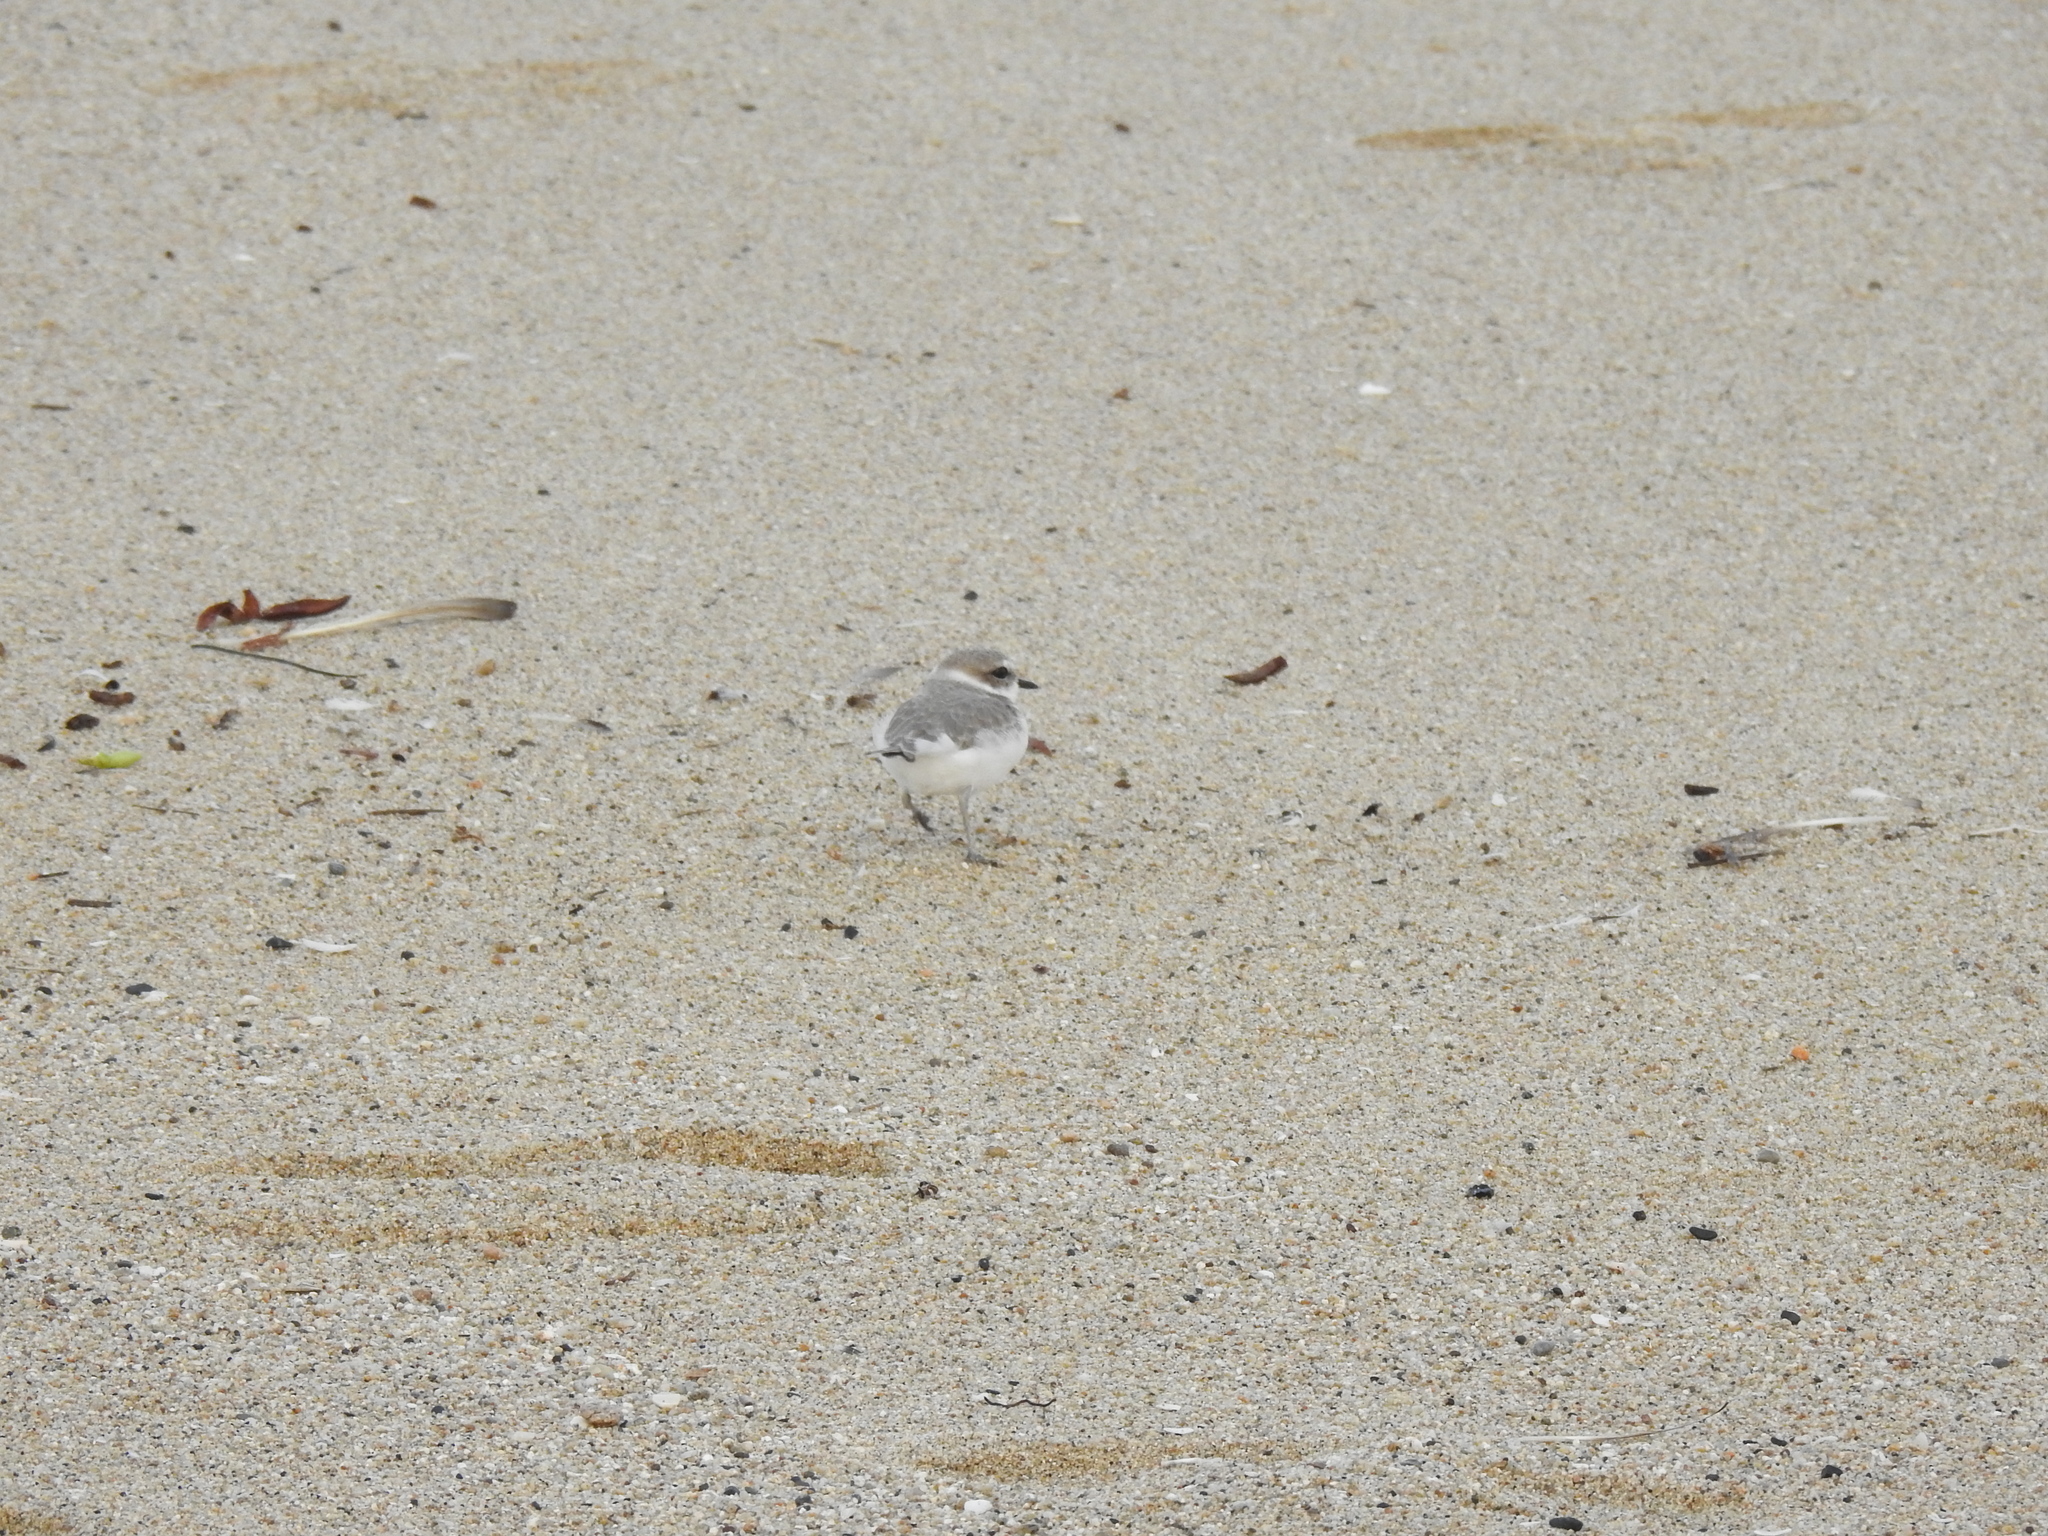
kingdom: Animalia
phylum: Chordata
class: Aves
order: Charadriiformes
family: Charadriidae
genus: Anarhynchus
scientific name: Anarhynchus
